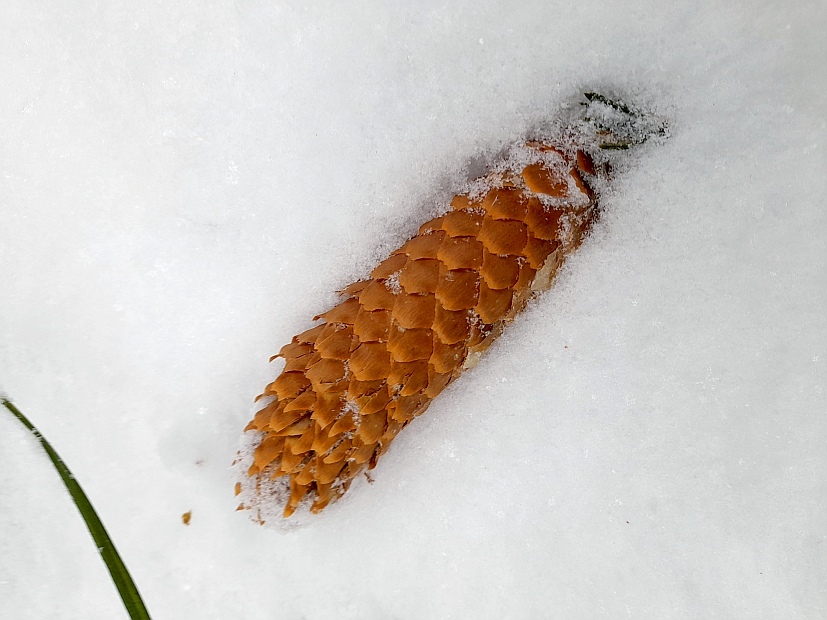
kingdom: Animalia
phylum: Chordata
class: Aves
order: Passeriformes
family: Fringillidae
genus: Loxia
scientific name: Loxia curvirostra
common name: Red crossbill
